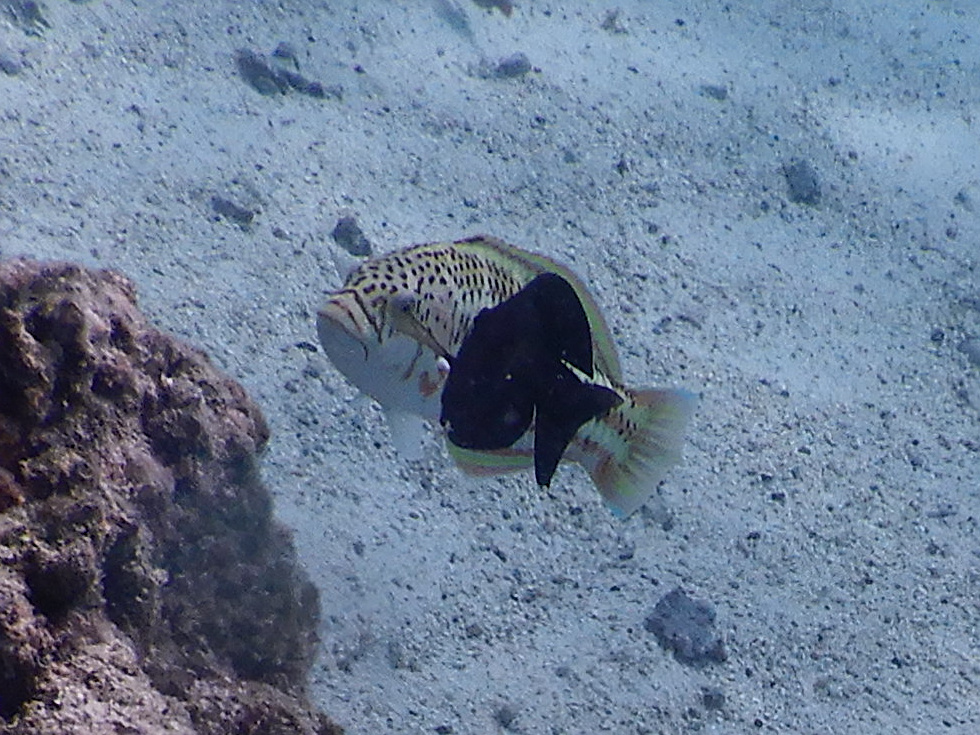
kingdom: Animalia
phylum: Chordata
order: Perciformes
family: Labridae
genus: Thalassoma
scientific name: Thalassoma purpureum
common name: Parrotfish
